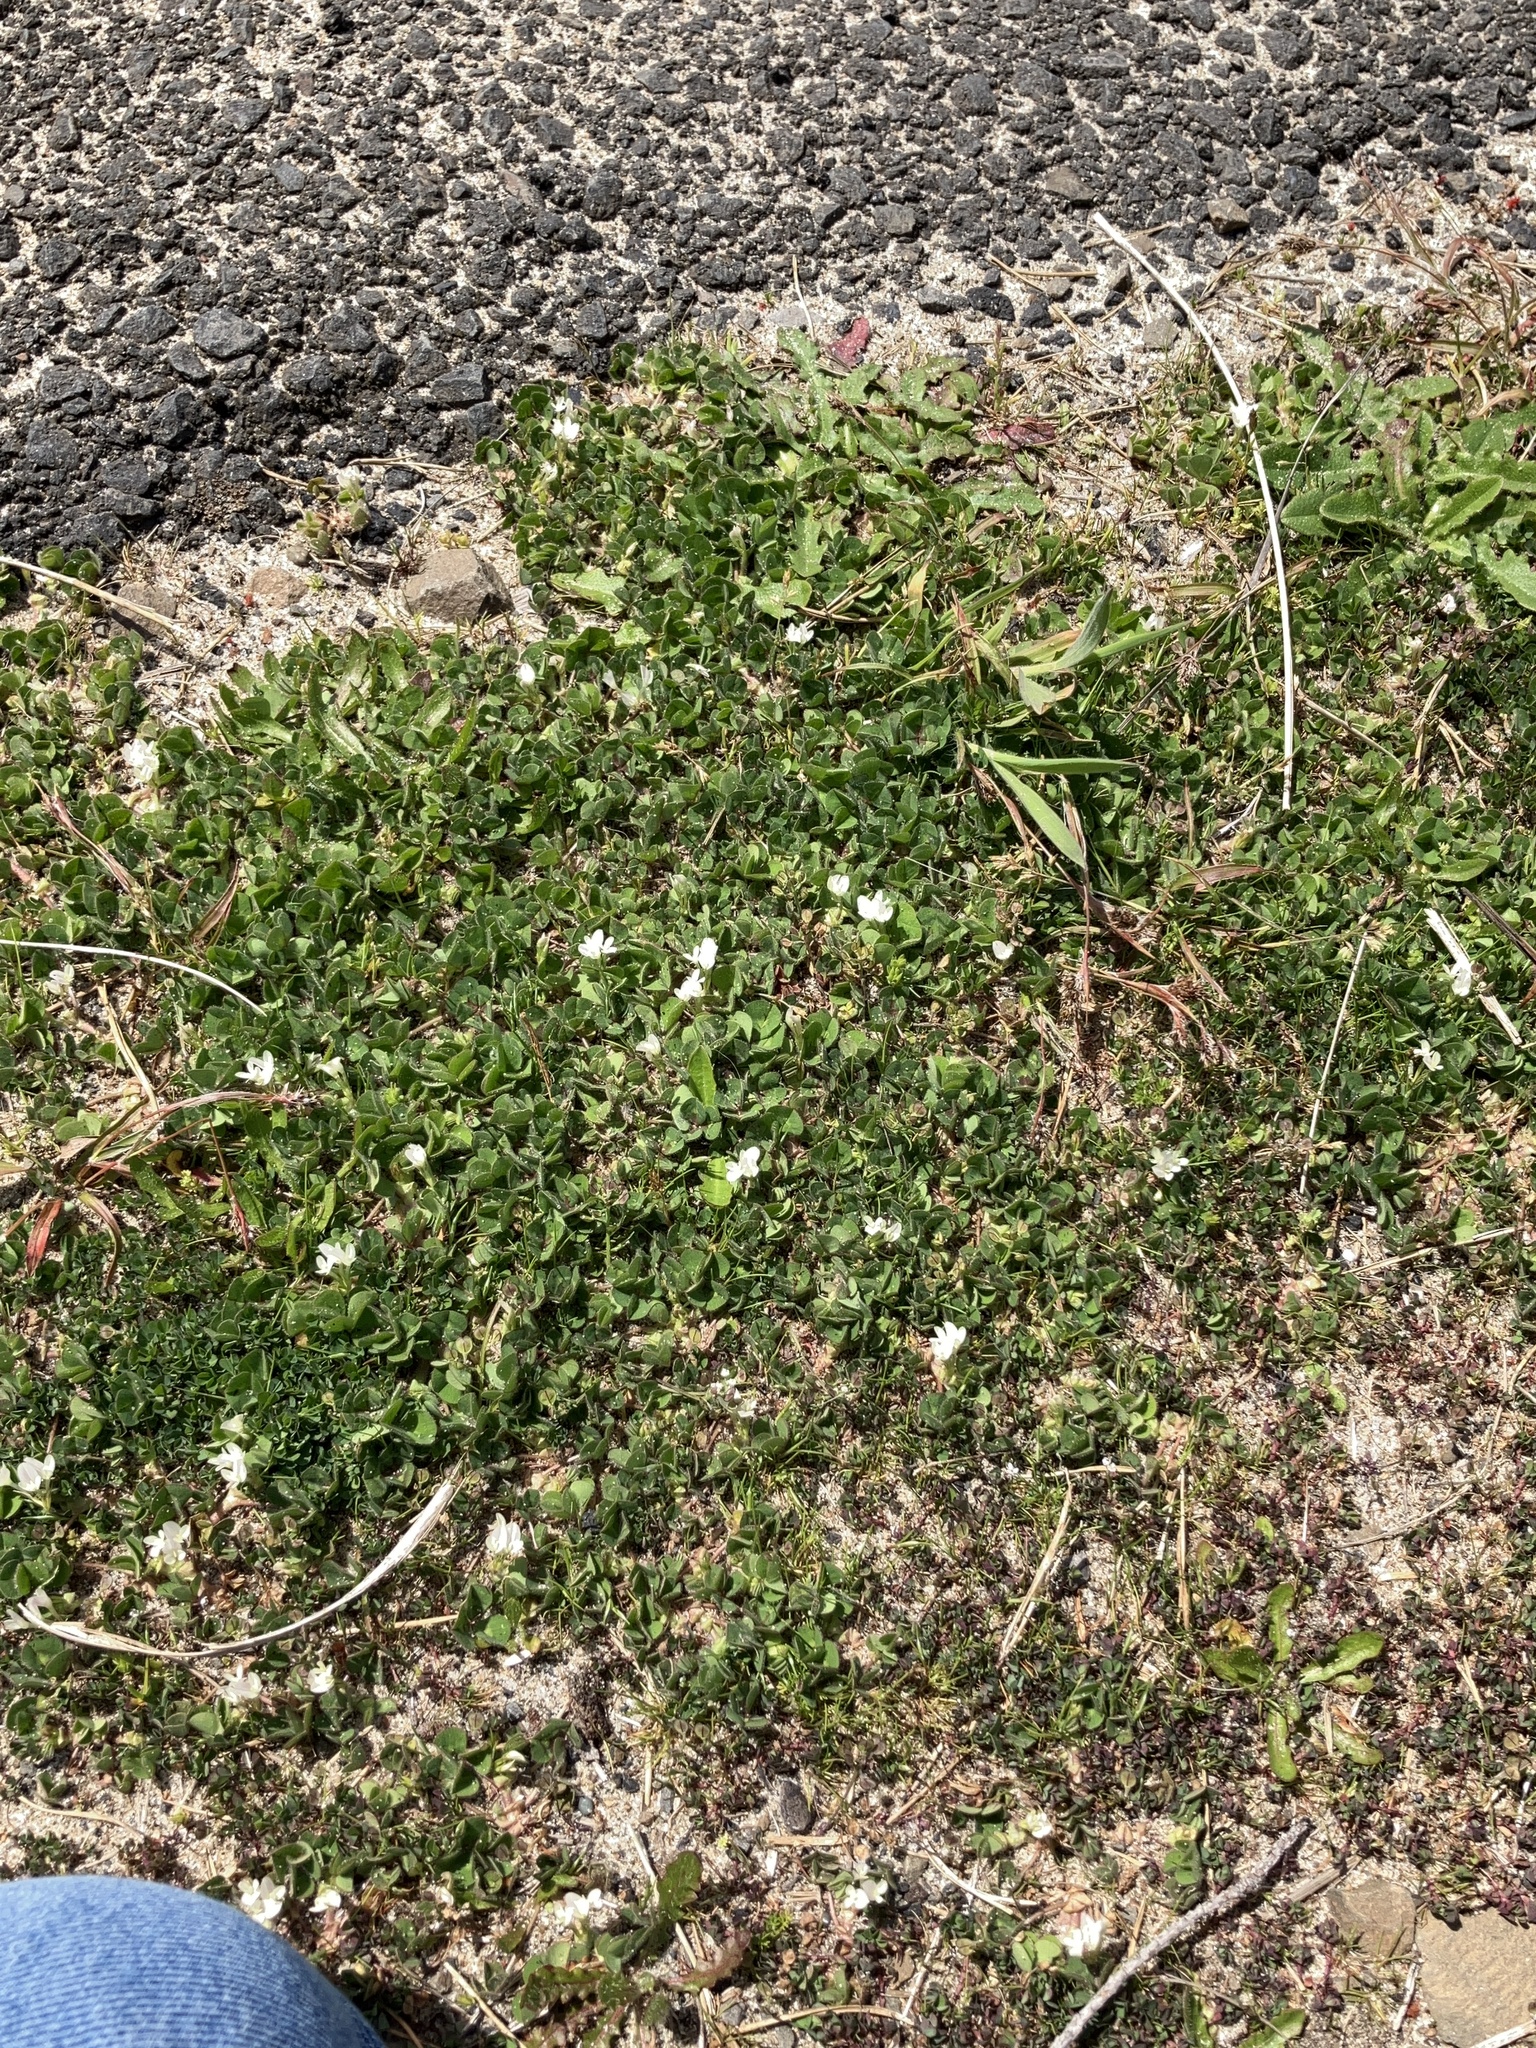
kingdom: Plantae
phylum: Tracheophyta
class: Magnoliopsida
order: Fabales
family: Fabaceae
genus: Trifolium
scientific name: Trifolium subterraneum
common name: Subterranean clover
